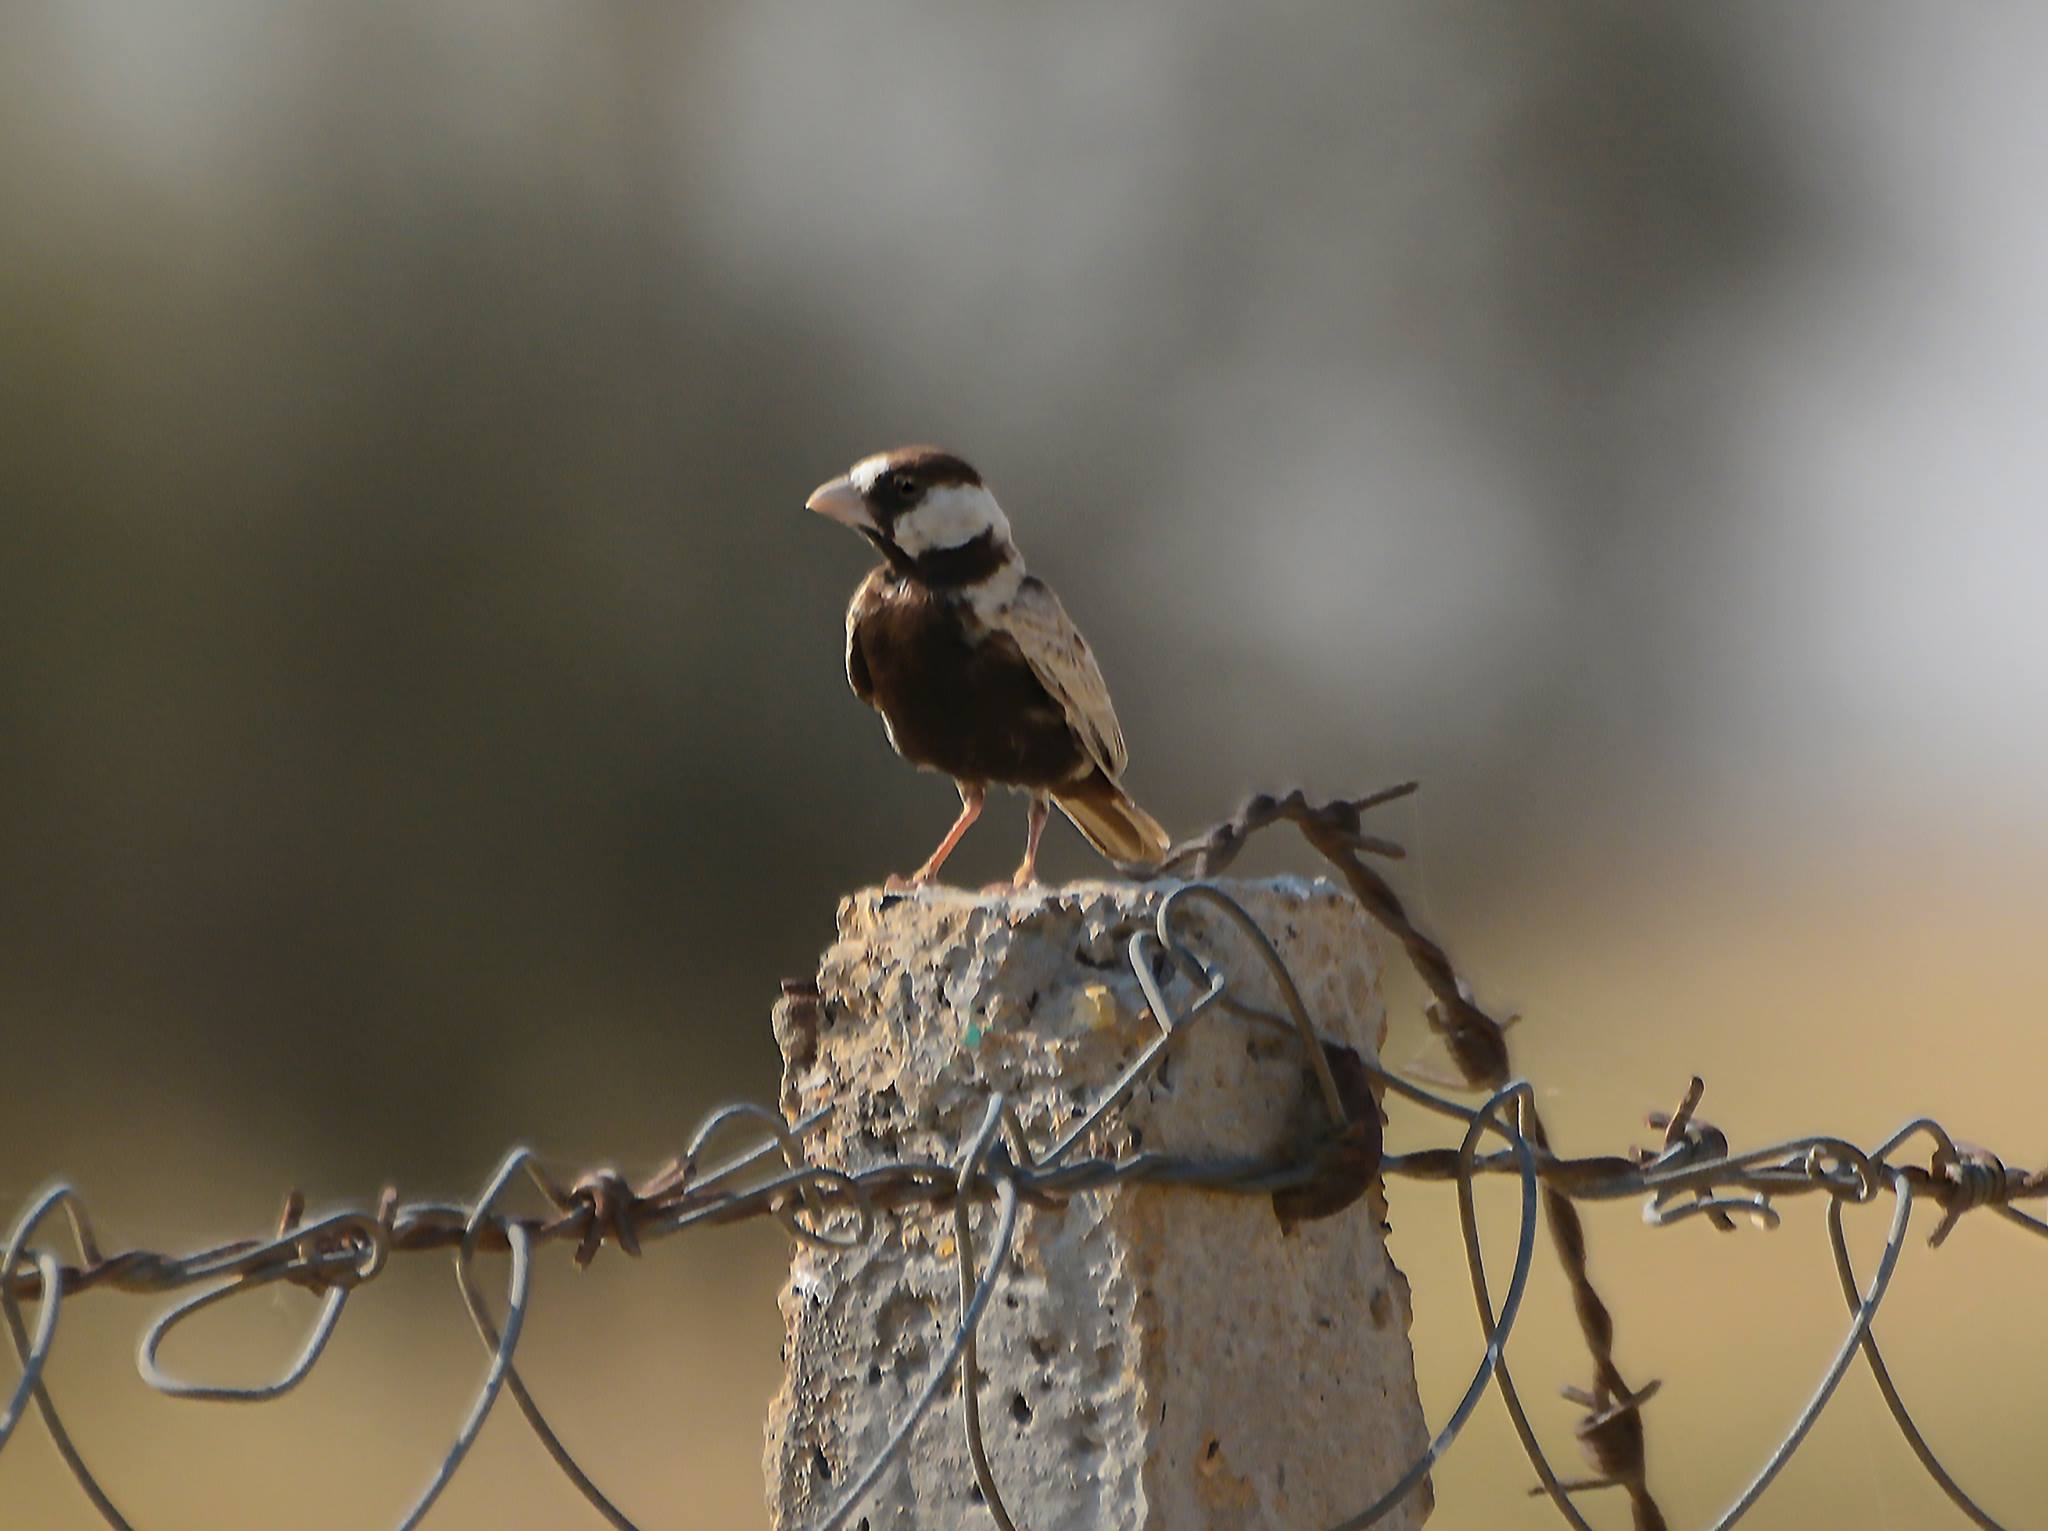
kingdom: Animalia
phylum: Chordata
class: Aves
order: Passeriformes
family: Alaudidae
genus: Eremopterix
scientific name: Eremopterix nigriceps
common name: Black-crowned sparrow-lark
